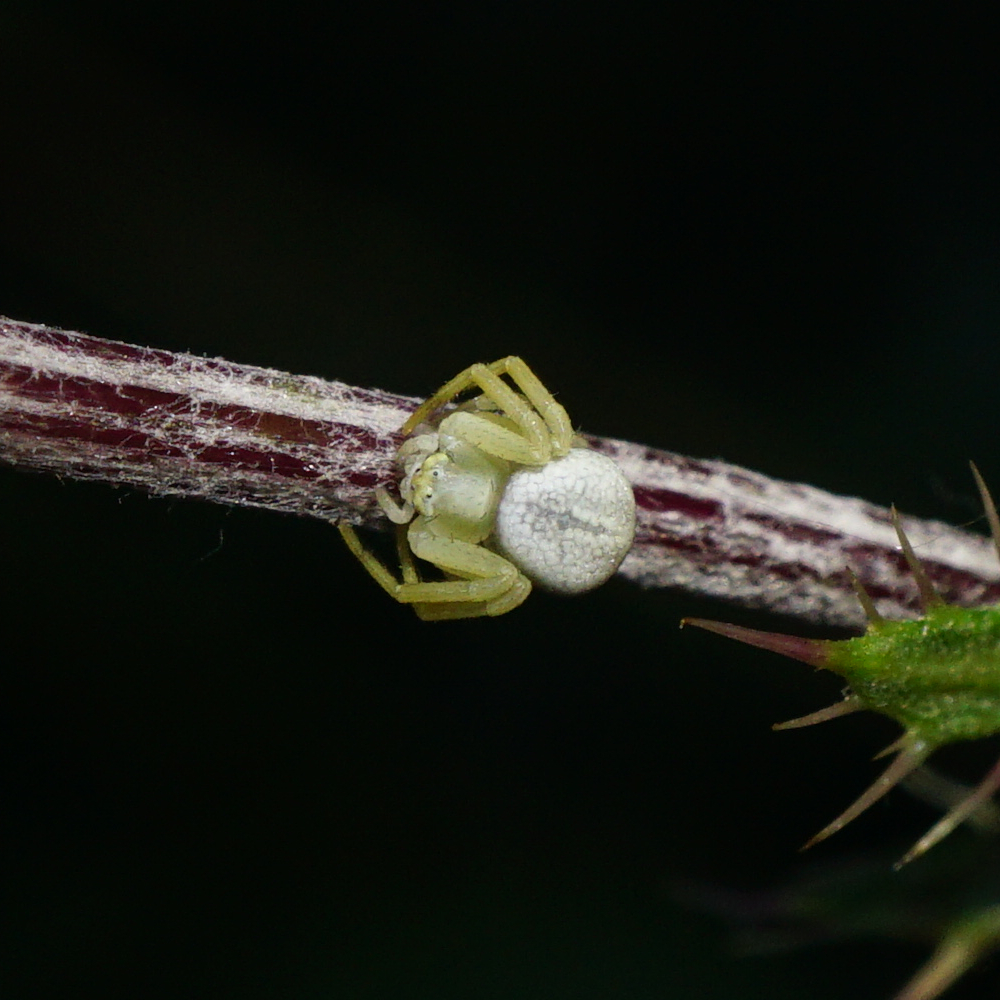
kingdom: Animalia
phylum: Arthropoda
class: Arachnida
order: Araneae
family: Thomisidae
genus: Misumena
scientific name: Misumena vatia
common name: Goldenrod crab spider
